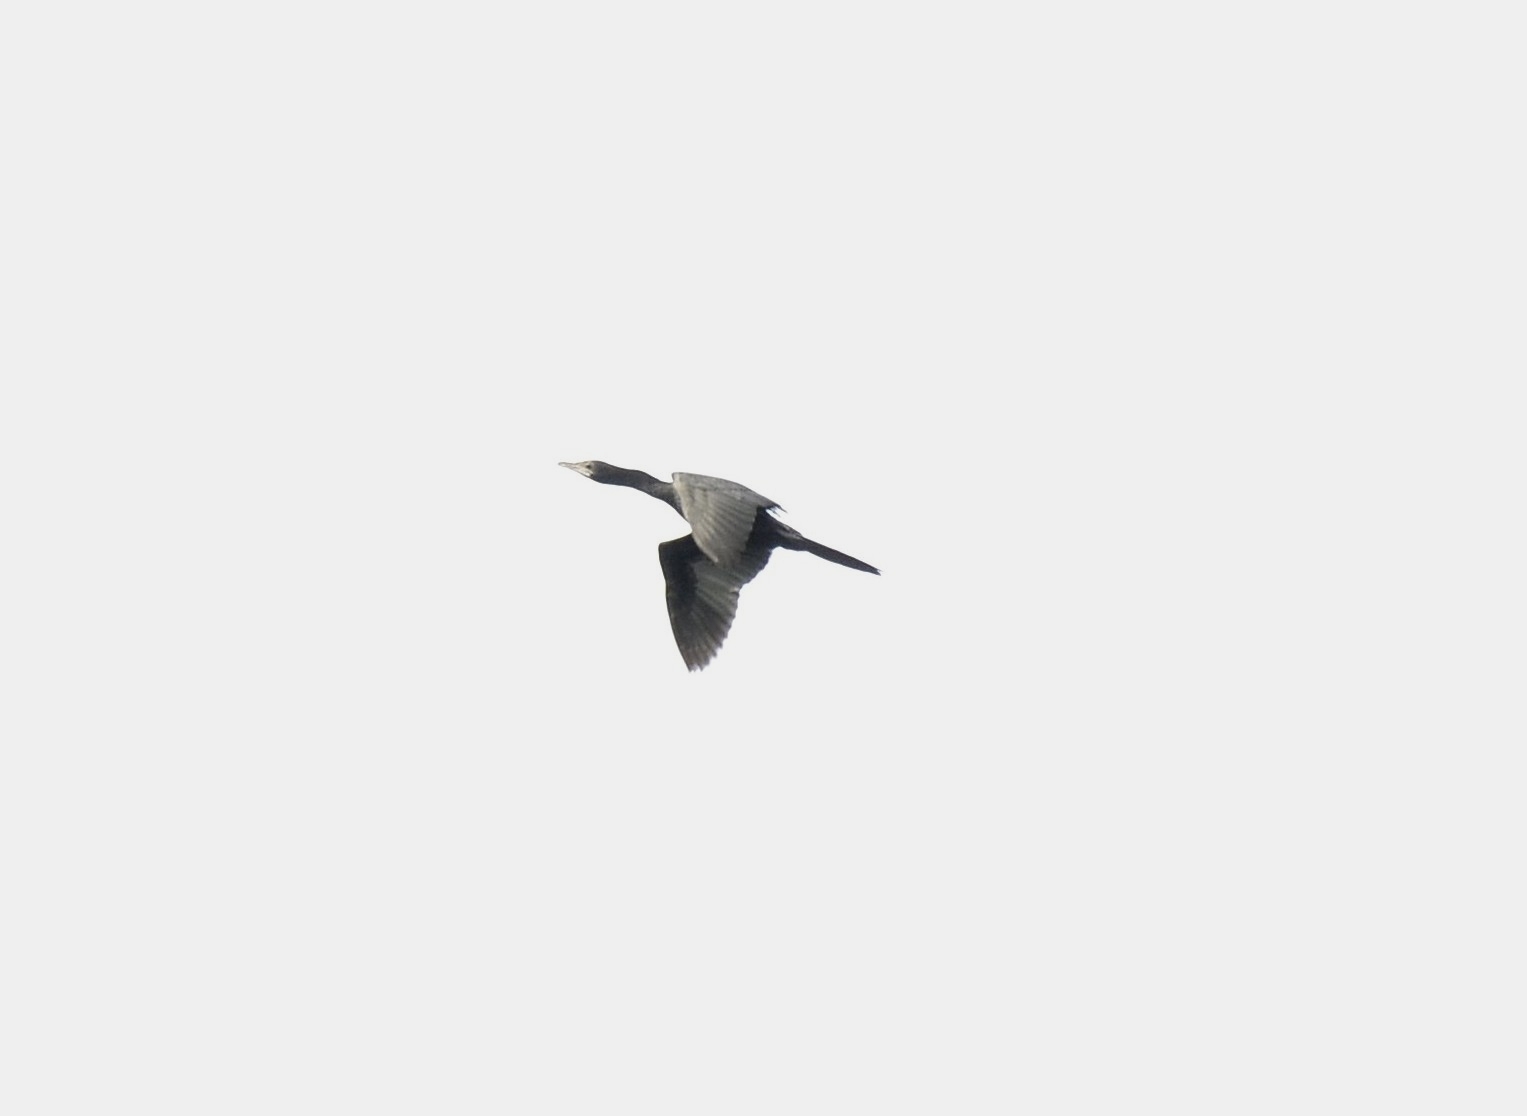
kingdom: Animalia
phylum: Chordata
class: Aves
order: Suliformes
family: Phalacrocoracidae
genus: Microcarbo
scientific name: Microcarbo niger
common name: Little cormorant
